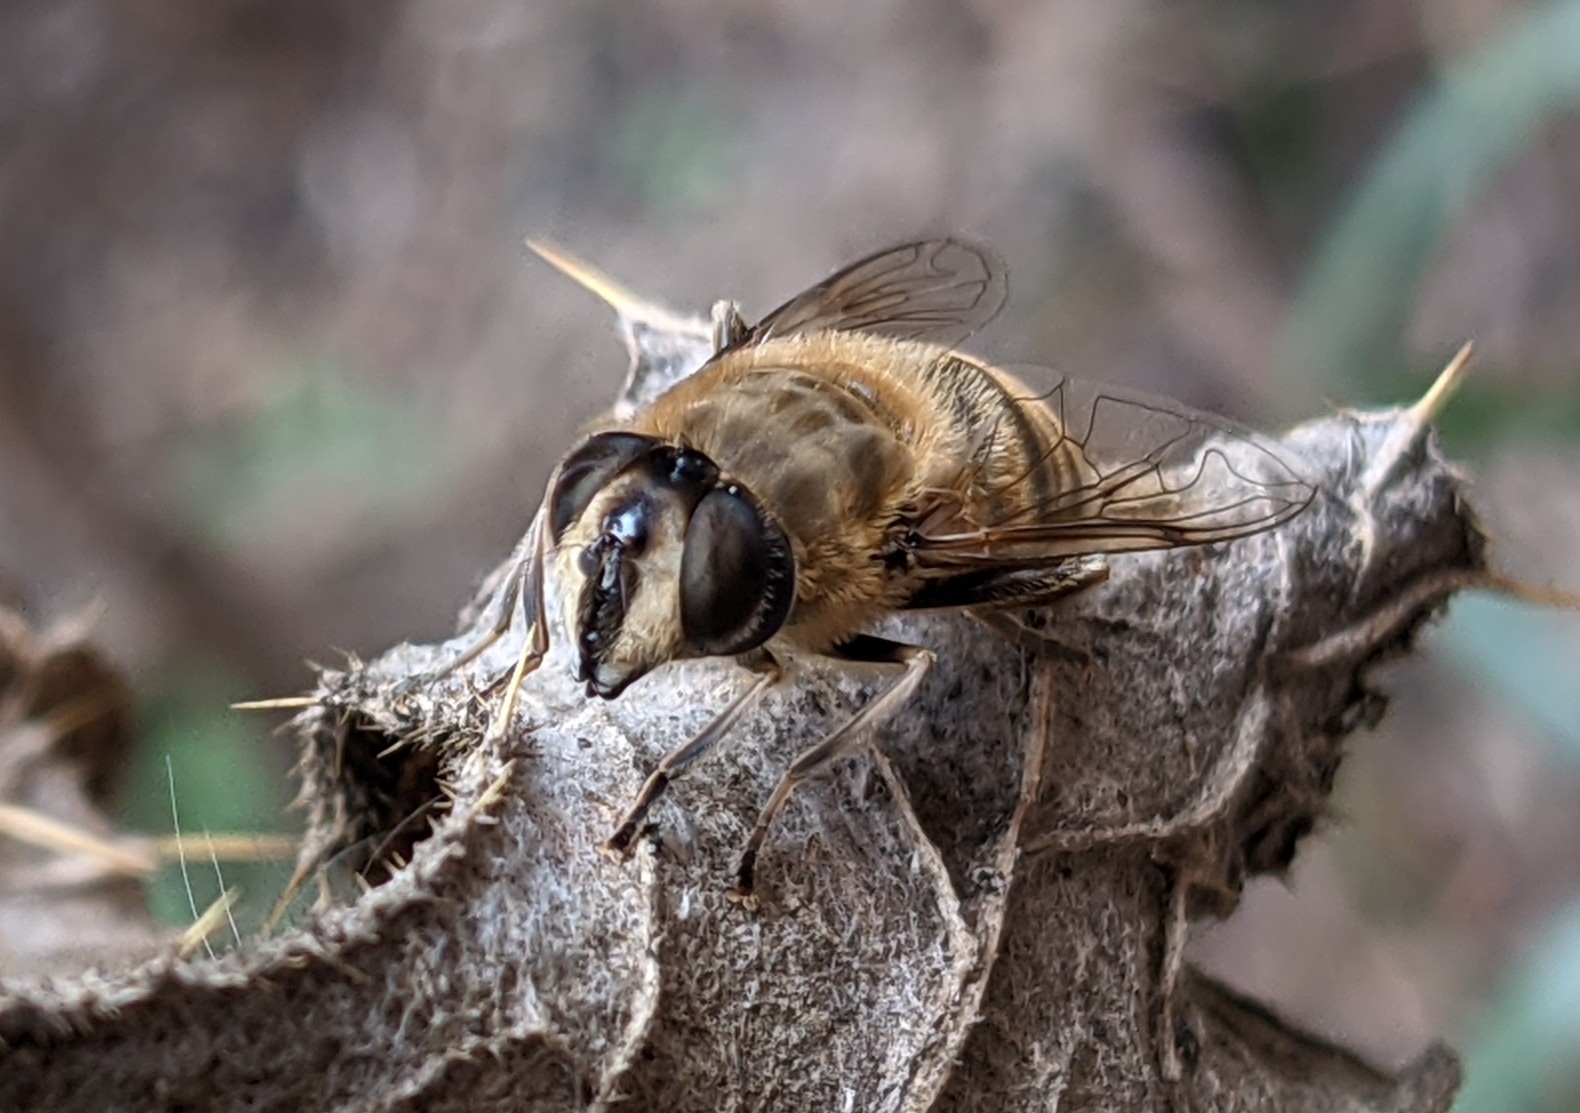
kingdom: Animalia
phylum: Arthropoda
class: Insecta
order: Diptera
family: Syrphidae
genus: Eristalis
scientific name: Eristalis tenax
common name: Drone fly
